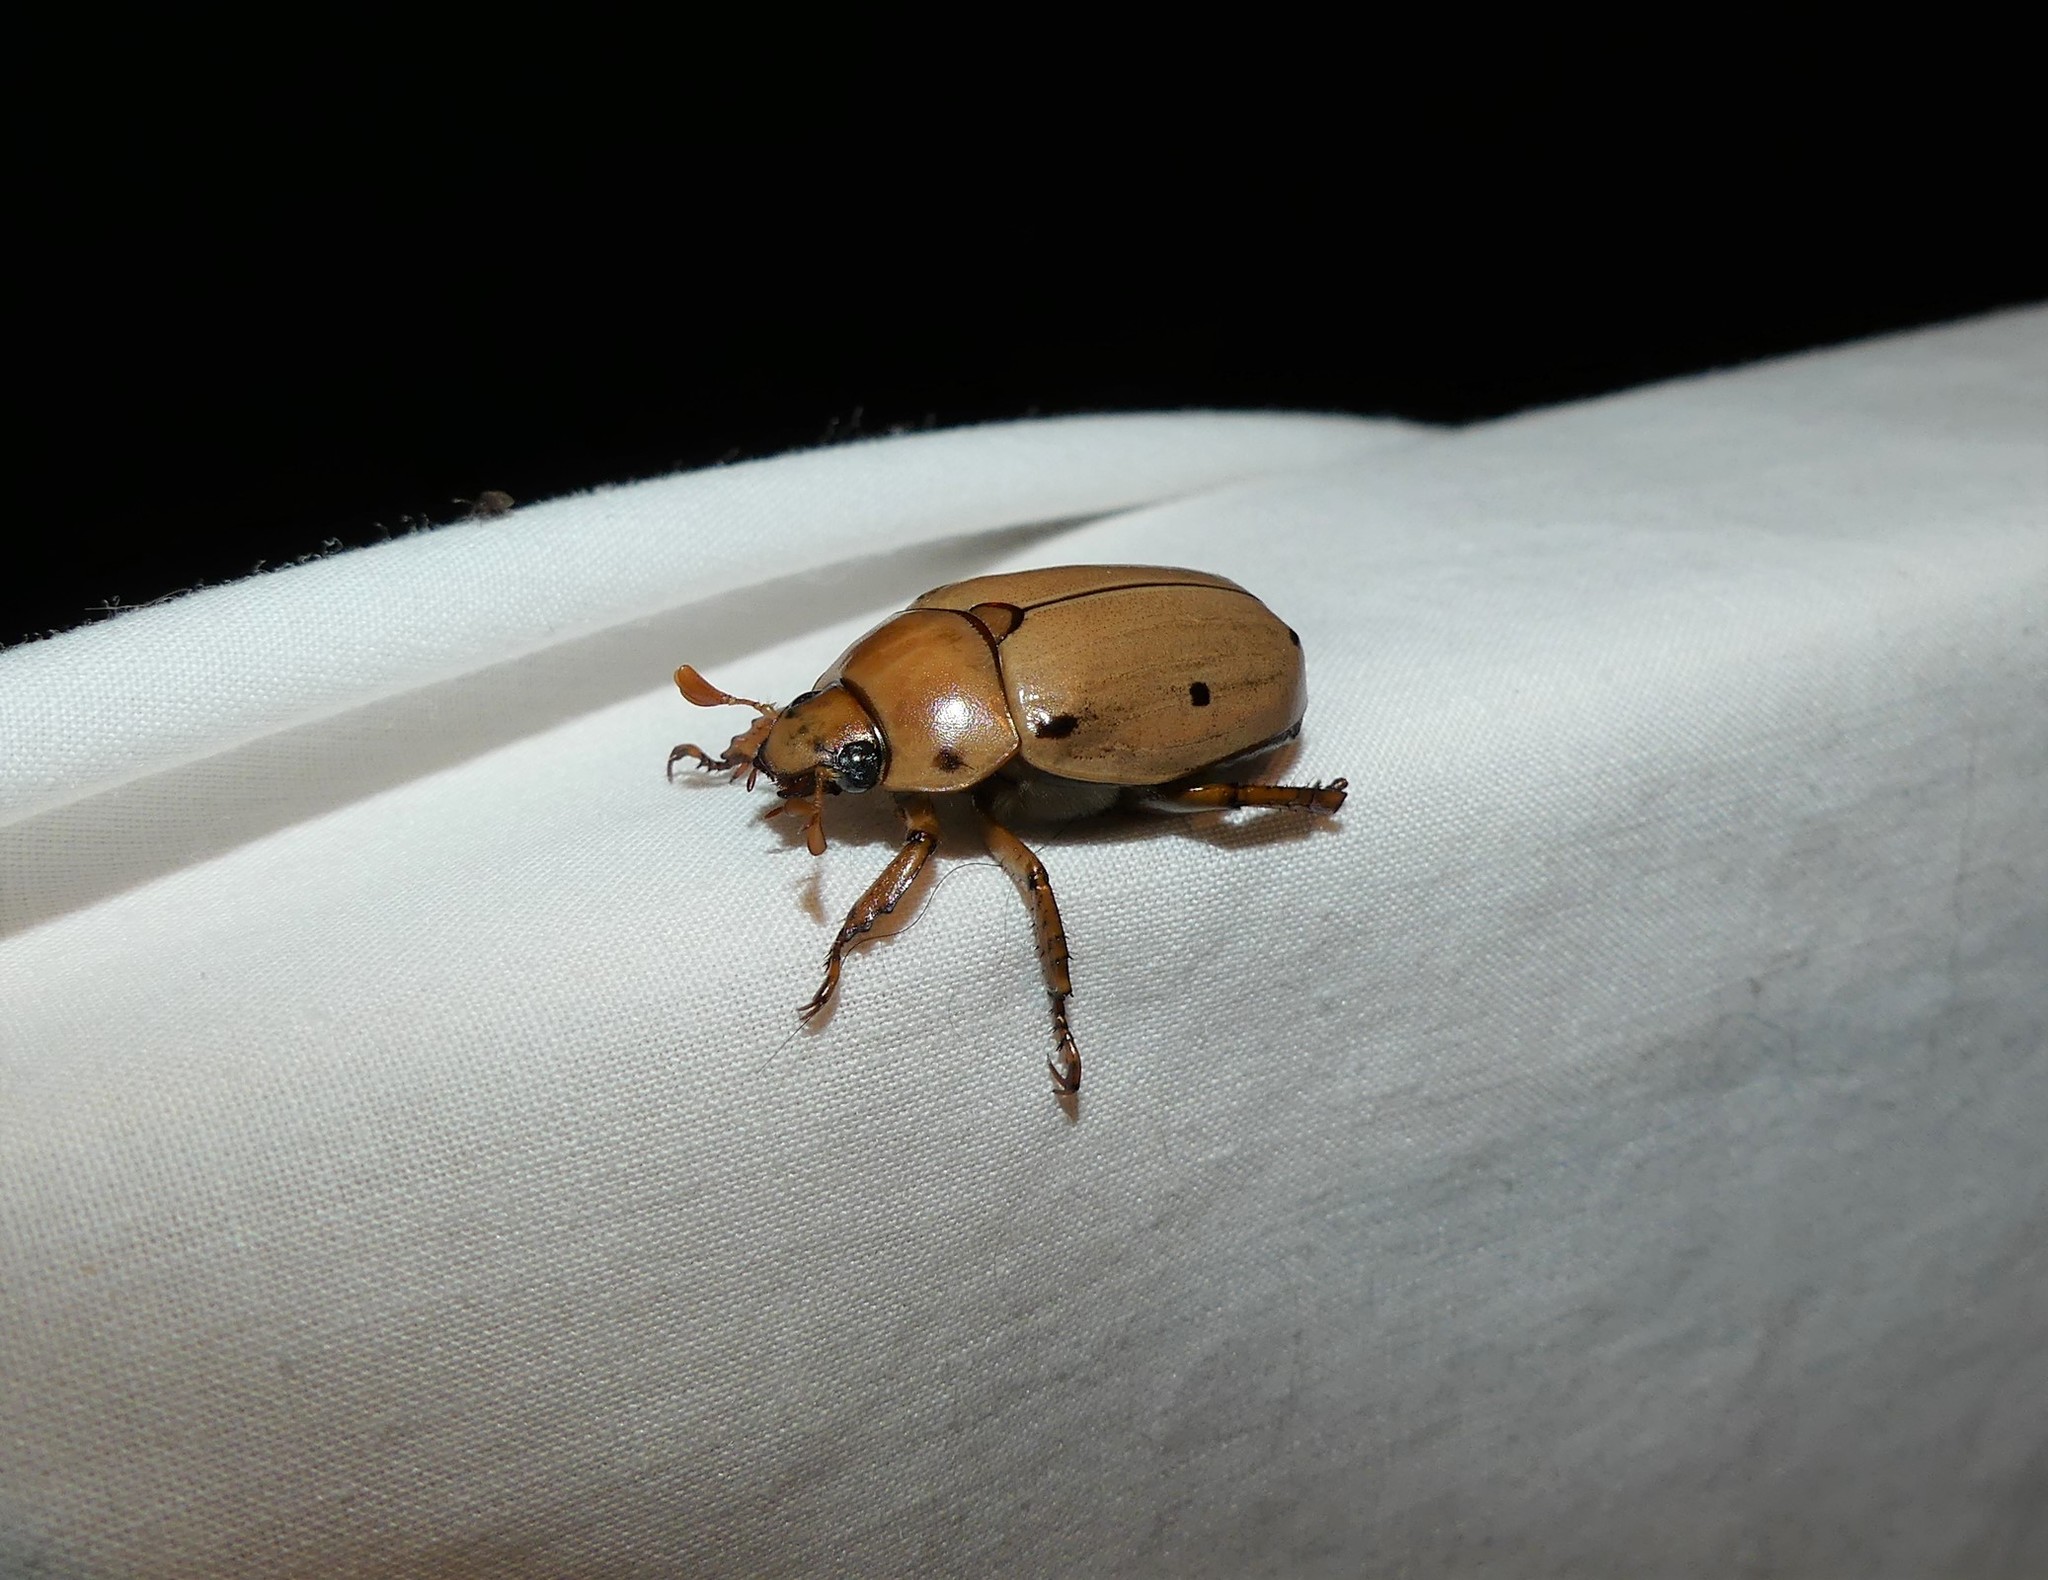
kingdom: Animalia
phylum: Arthropoda
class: Insecta
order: Coleoptera
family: Scarabaeidae
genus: Pelidnota
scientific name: Pelidnota punctata
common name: Grapevine beetle
